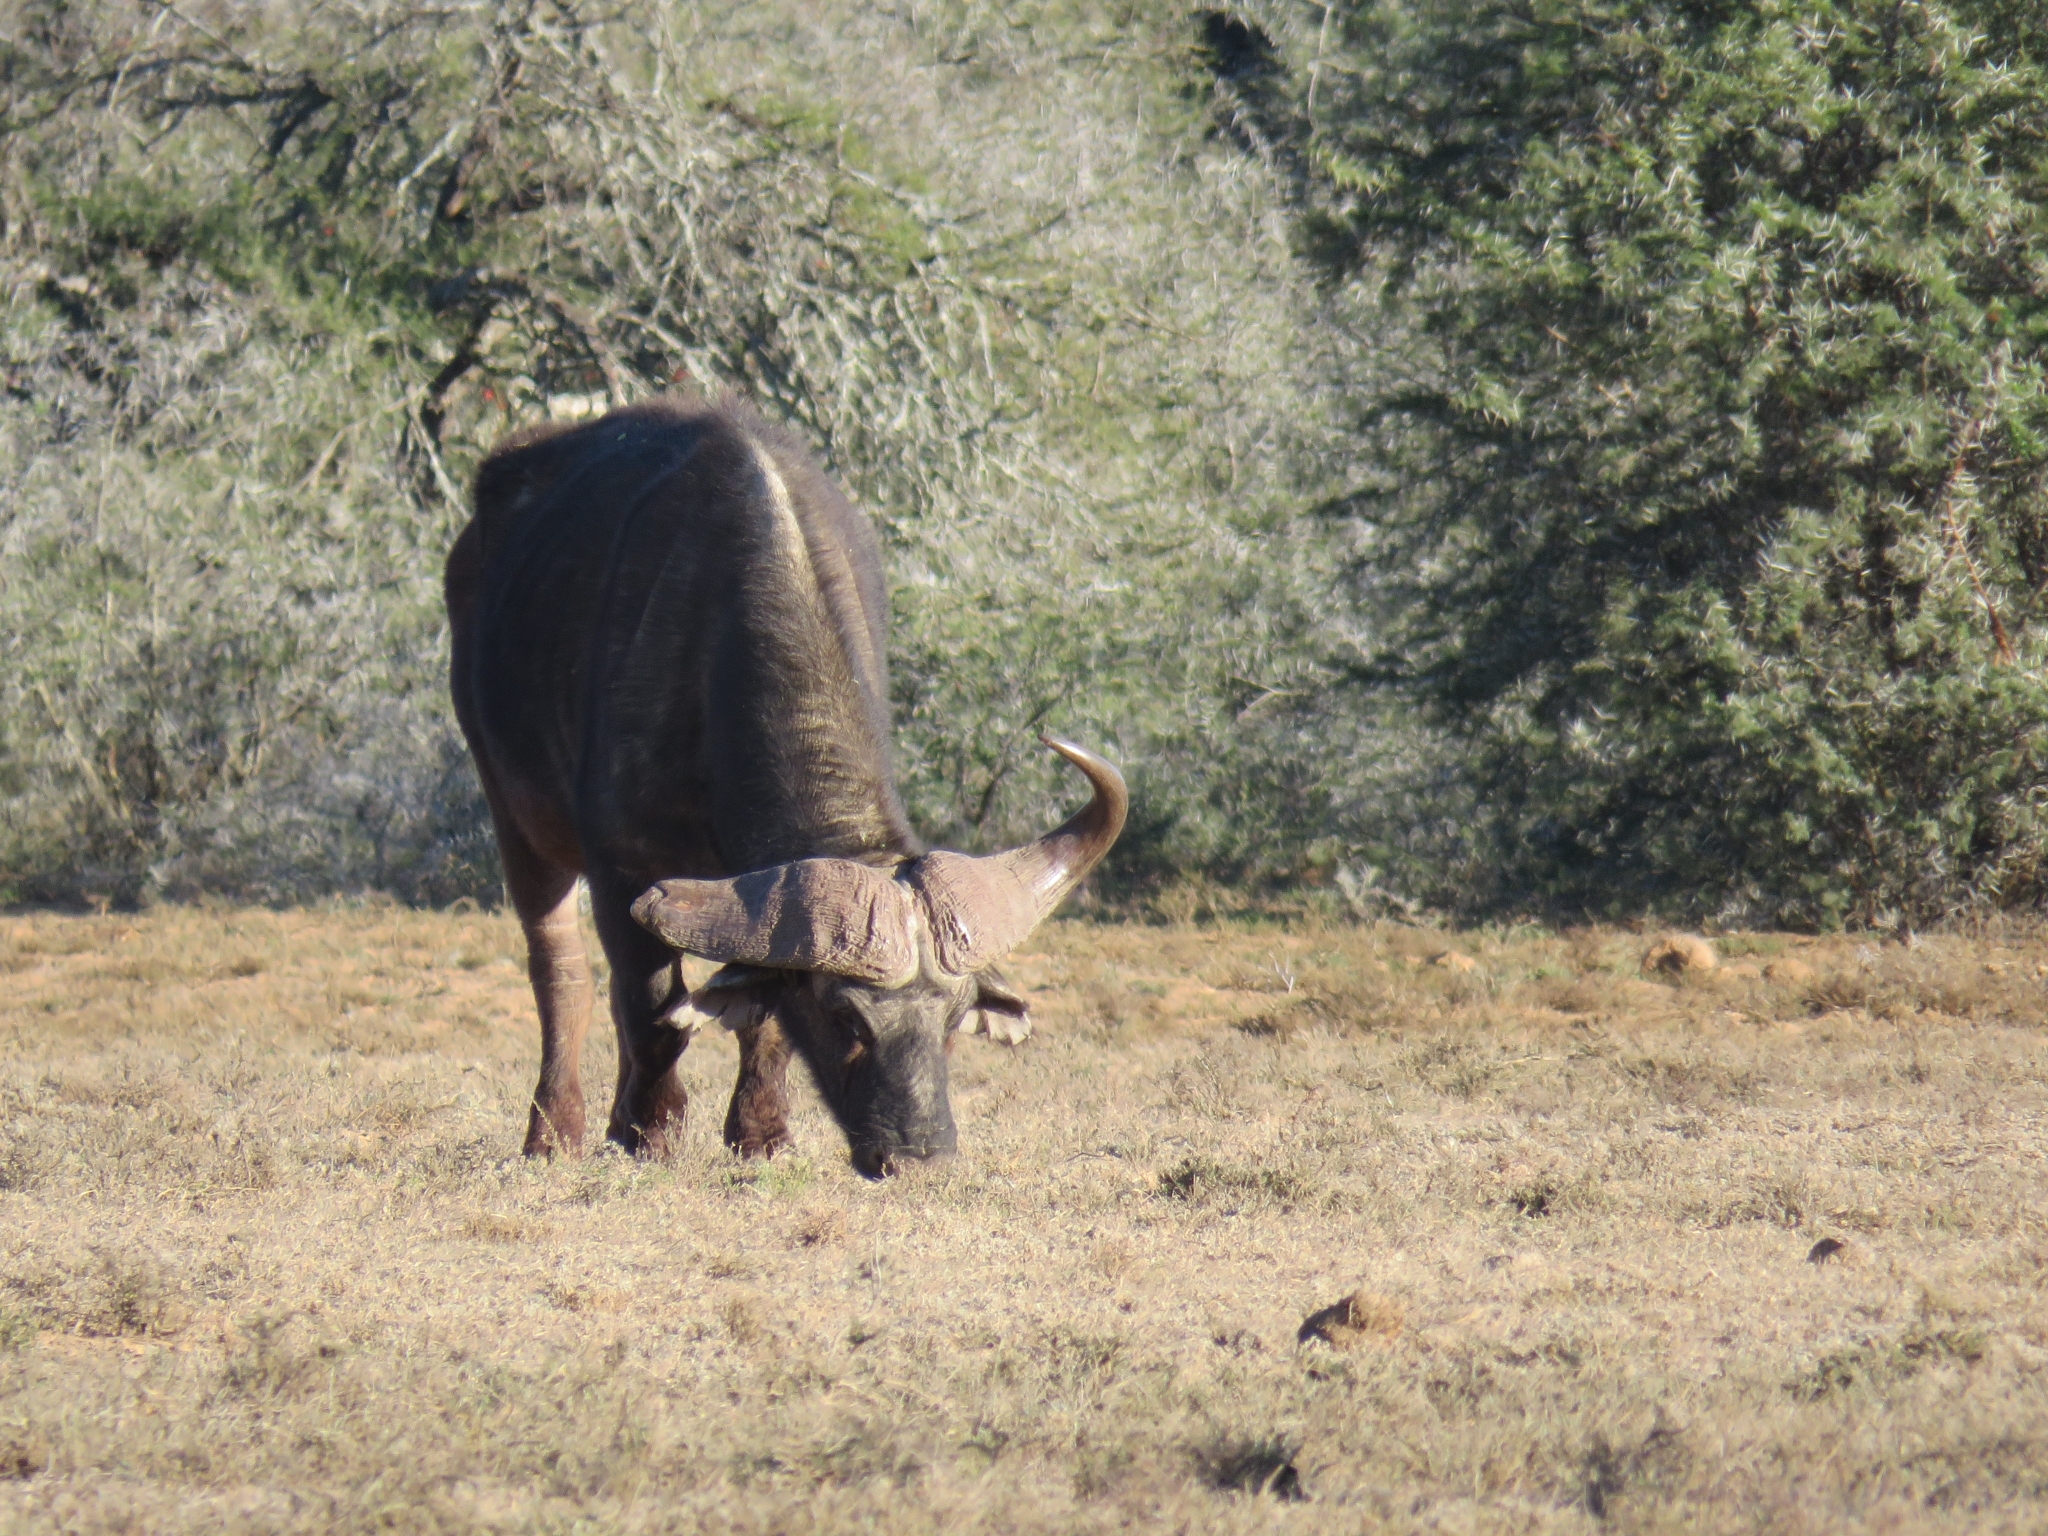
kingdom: Animalia
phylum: Chordata
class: Mammalia
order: Artiodactyla
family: Bovidae
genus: Syncerus
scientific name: Syncerus caffer
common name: African buffalo
